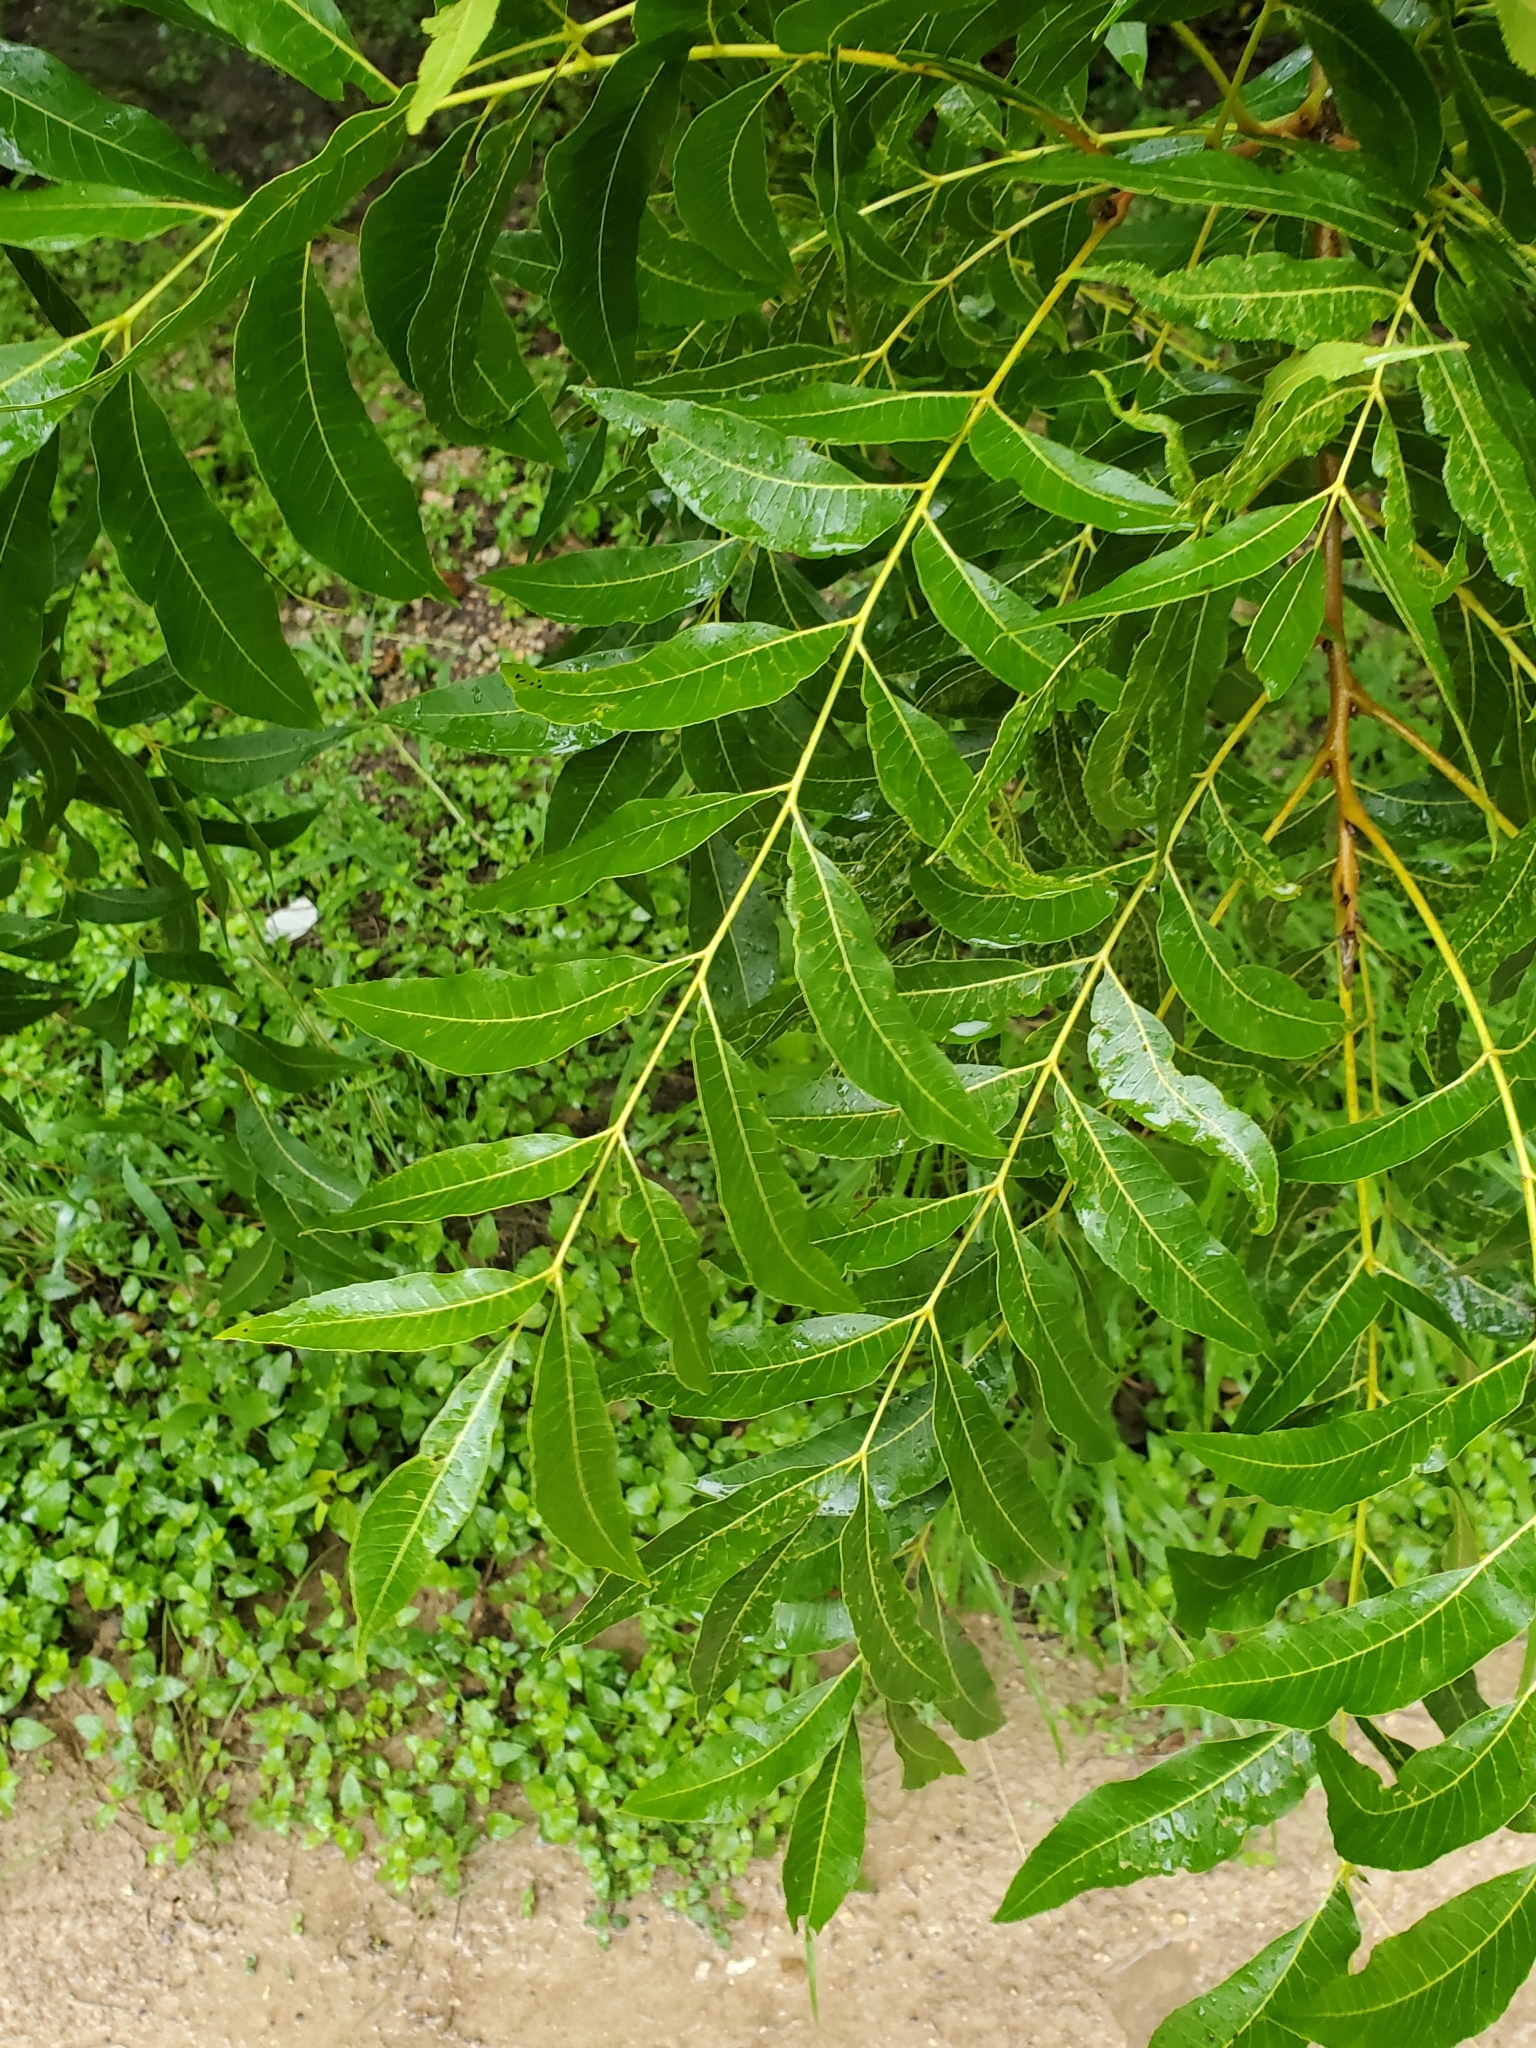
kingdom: Plantae
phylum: Tracheophyta
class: Magnoliopsida
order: Sapindales
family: Anacardiaceae
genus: Pistacia
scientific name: Pistacia chinensis
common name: Chinese pistache
